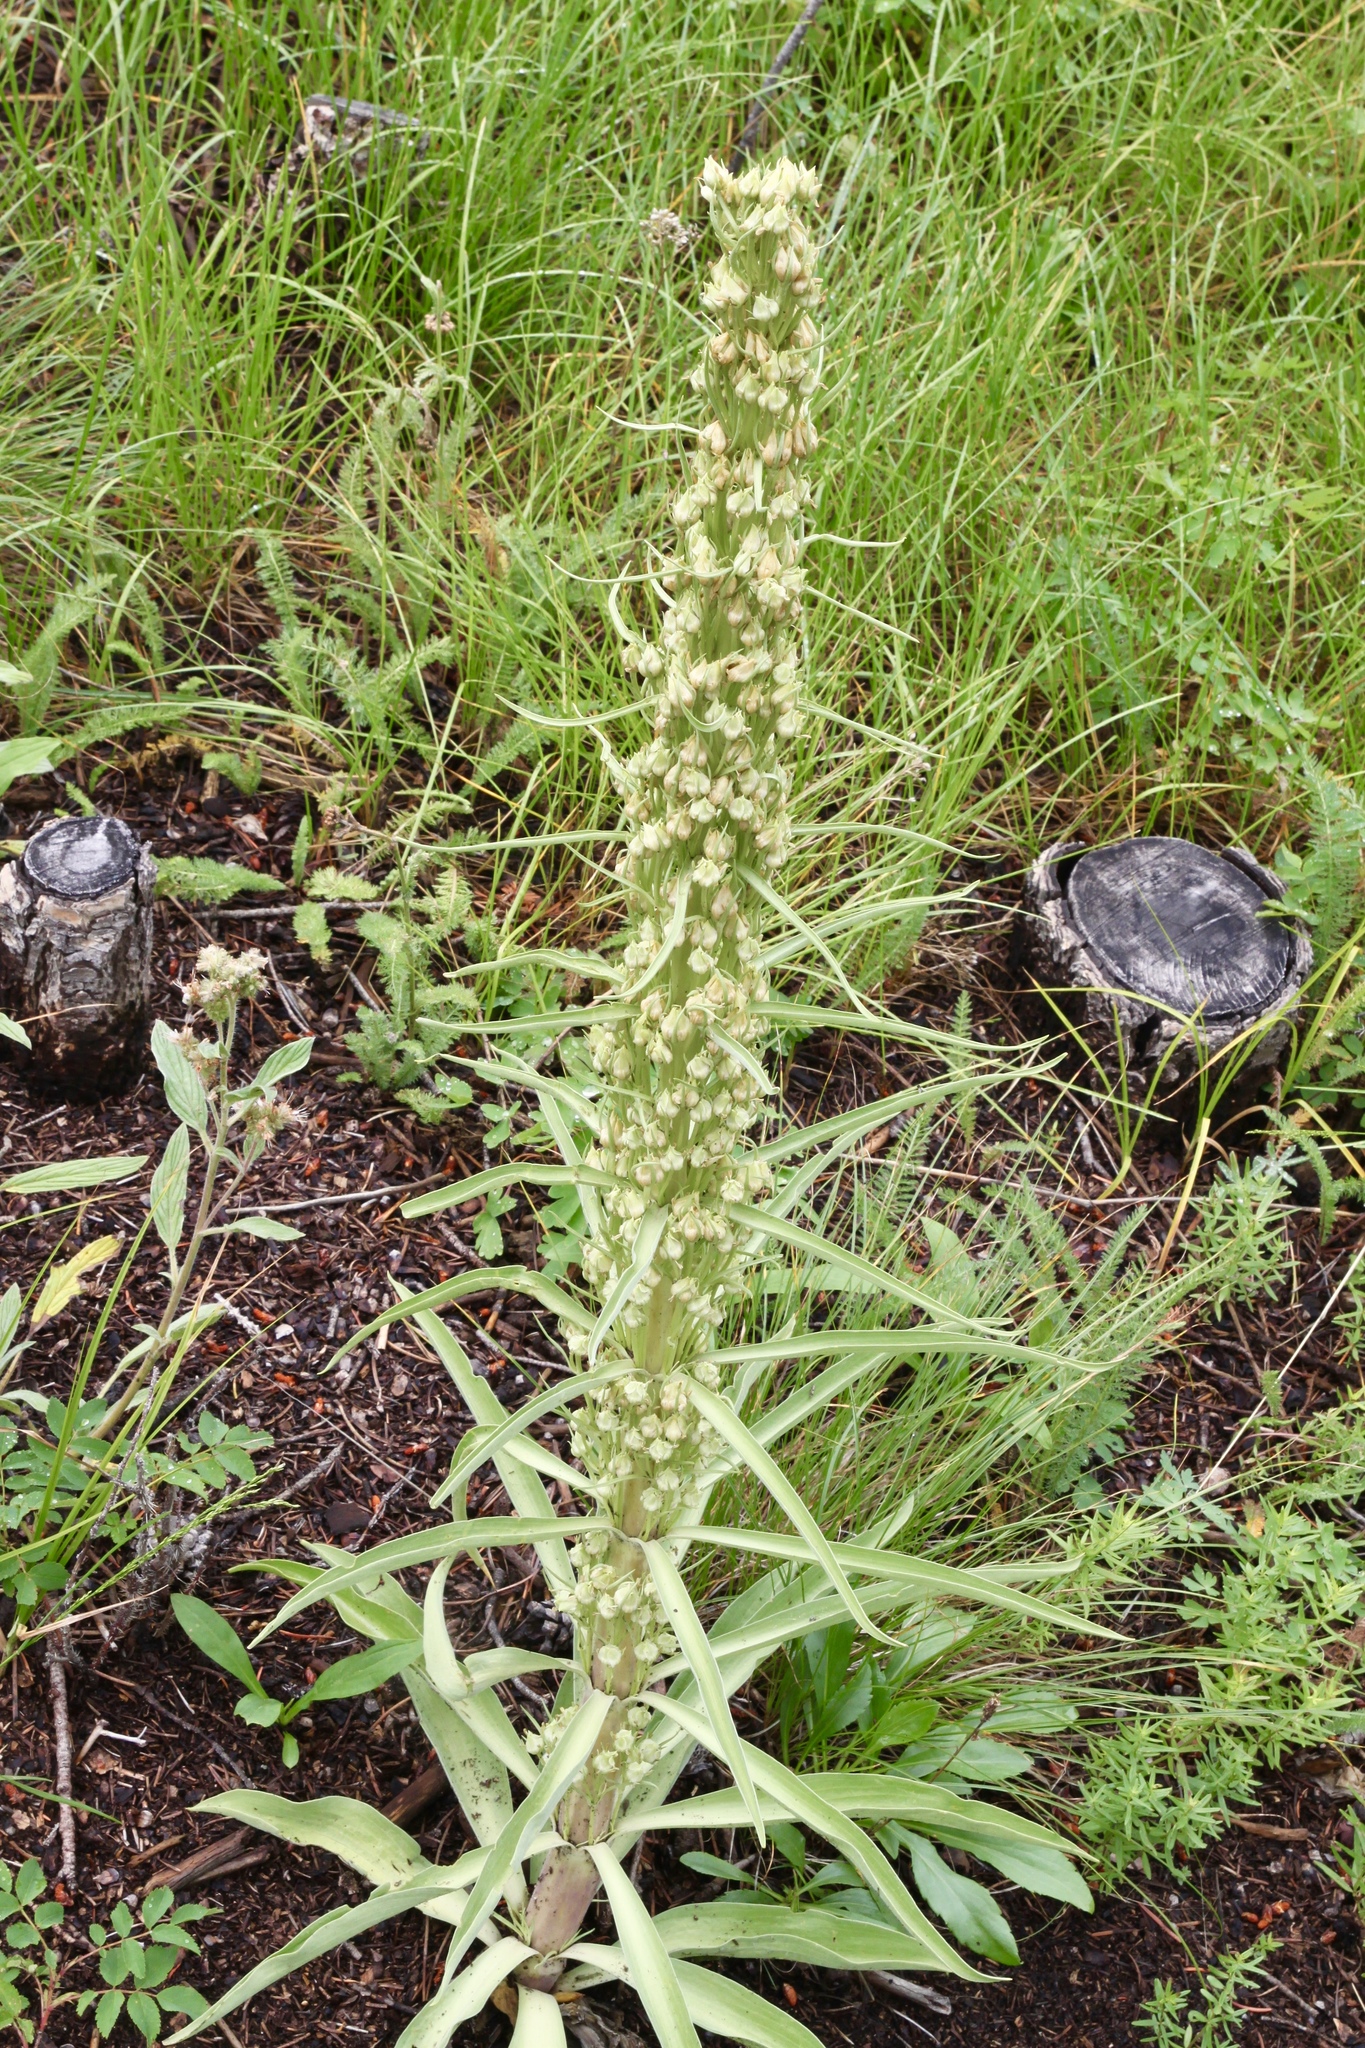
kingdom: Plantae
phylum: Tracheophyta
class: Magnoliopsida
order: Gentianales
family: Gentianaceae
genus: Frasera
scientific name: Frasera speciosa
